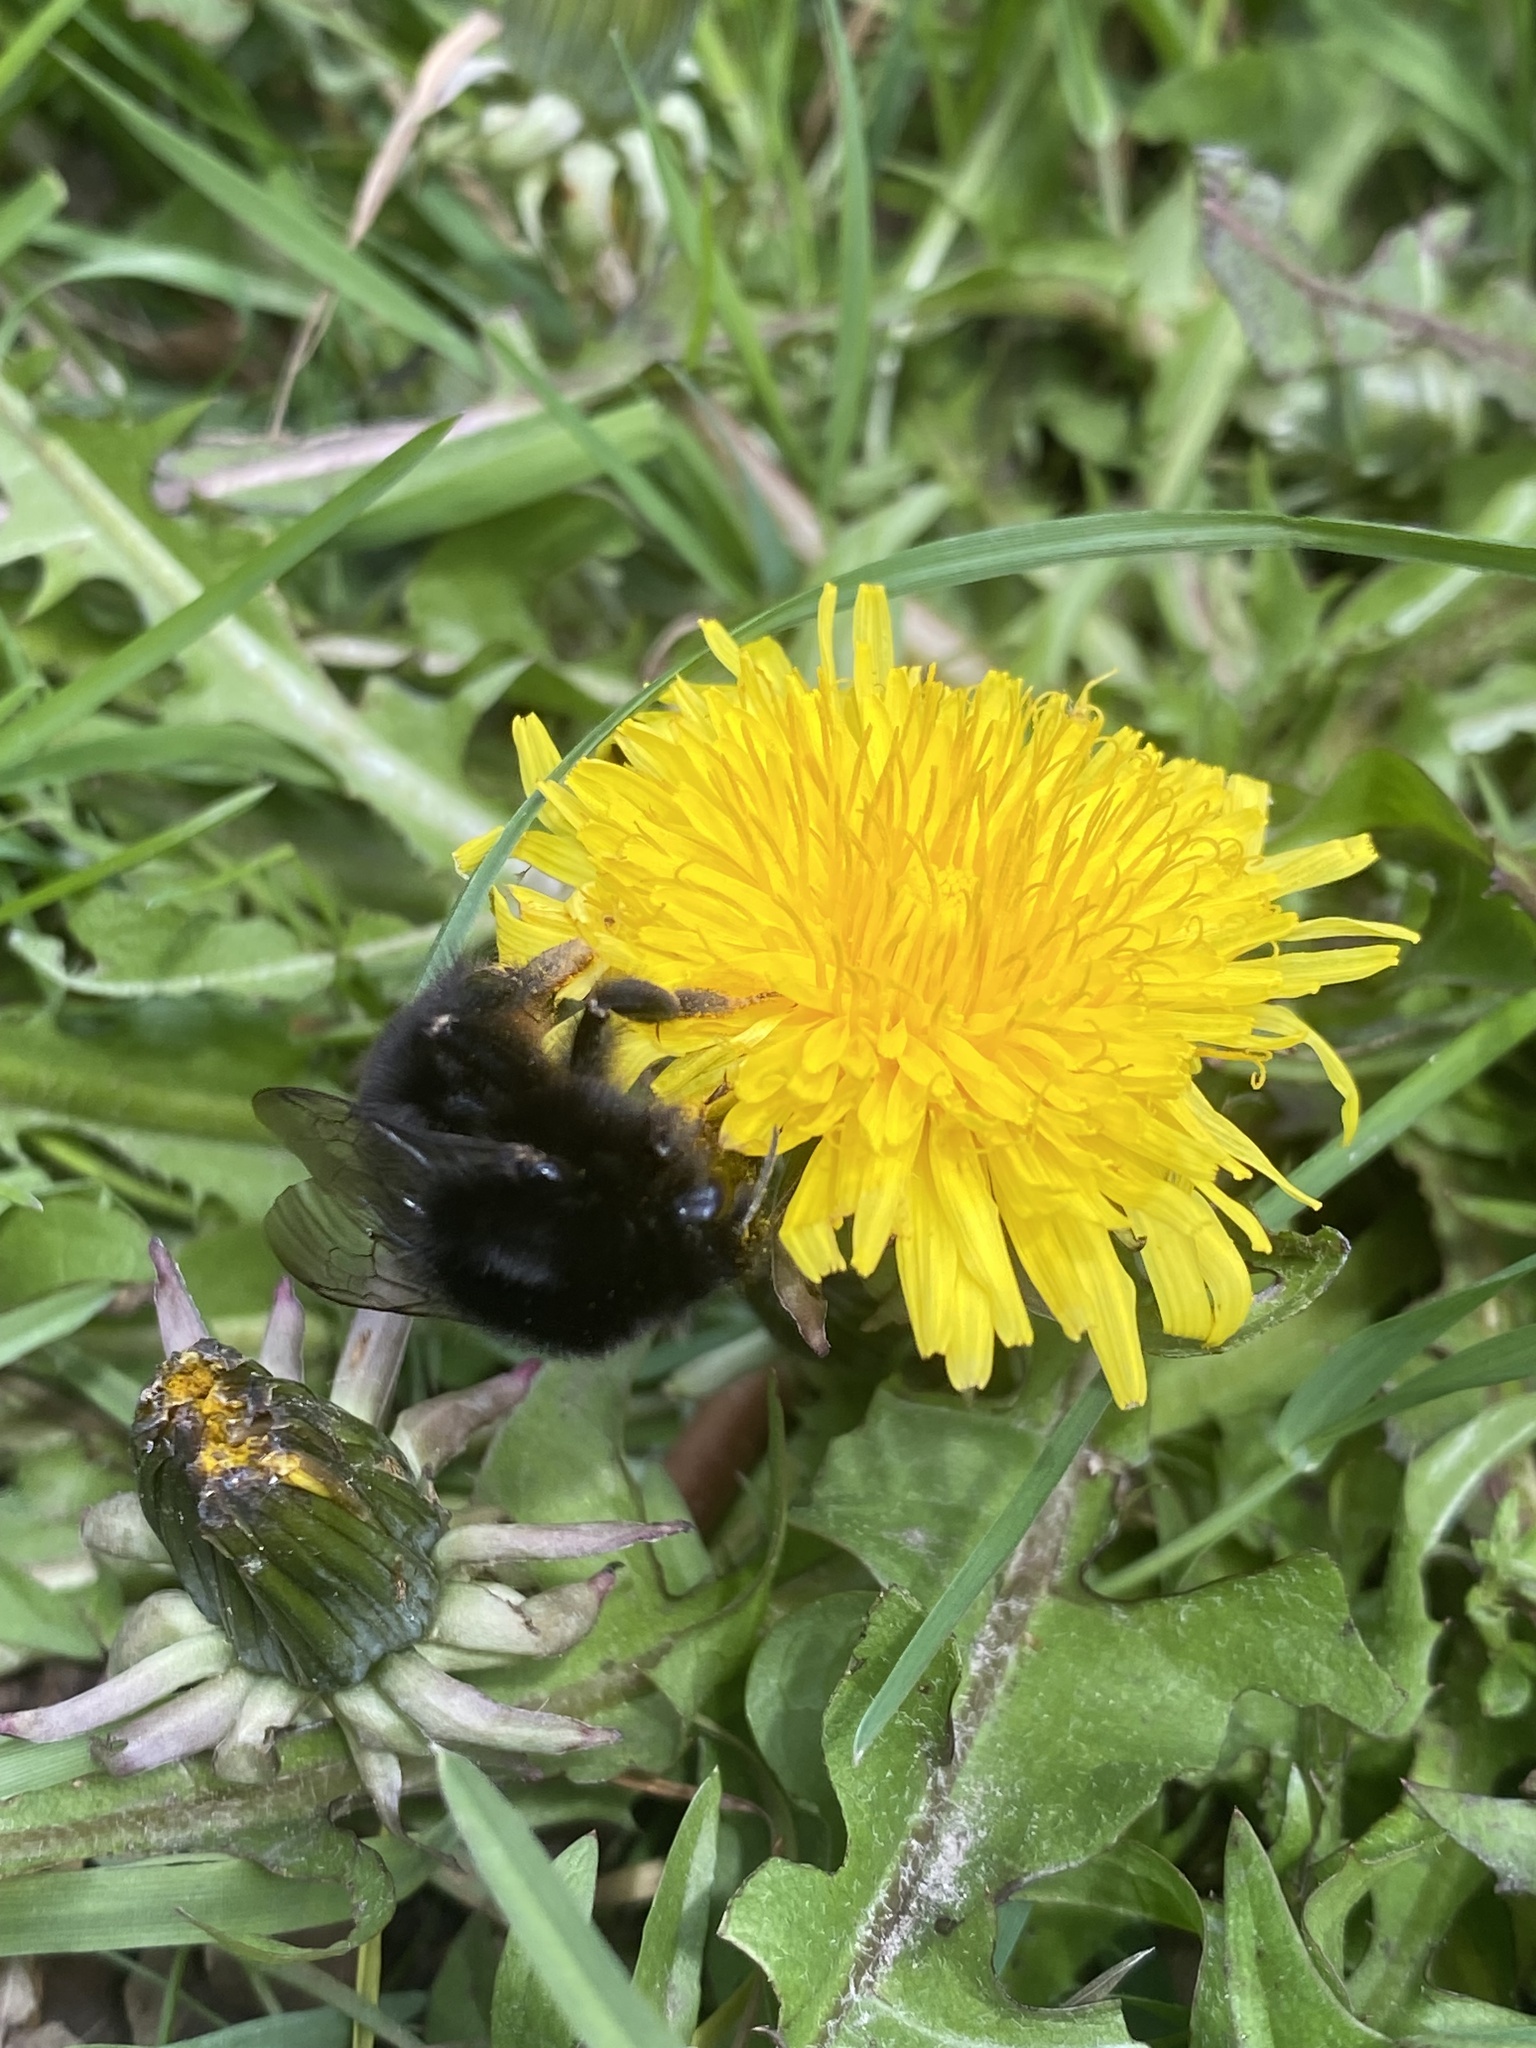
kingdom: Animalia
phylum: Arthropoda
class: Insecta
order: Hymenoptera
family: Apidae
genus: Bombus
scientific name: Bombus lapidarius
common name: Large red-tailed humble-bee
